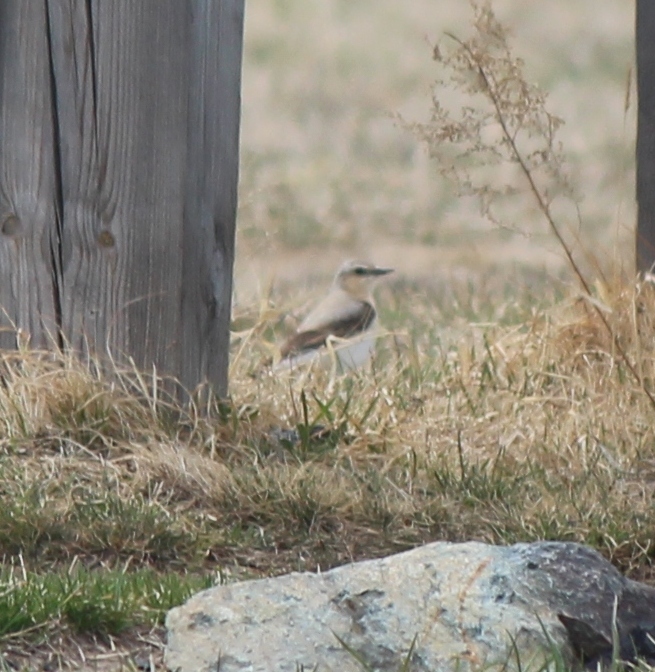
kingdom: Animalia
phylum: Chordata
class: Aves
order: Passeriformes
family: Muscicapidae
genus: Oenanthe
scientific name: Oenanthe oenanthe
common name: Northern wheatear
